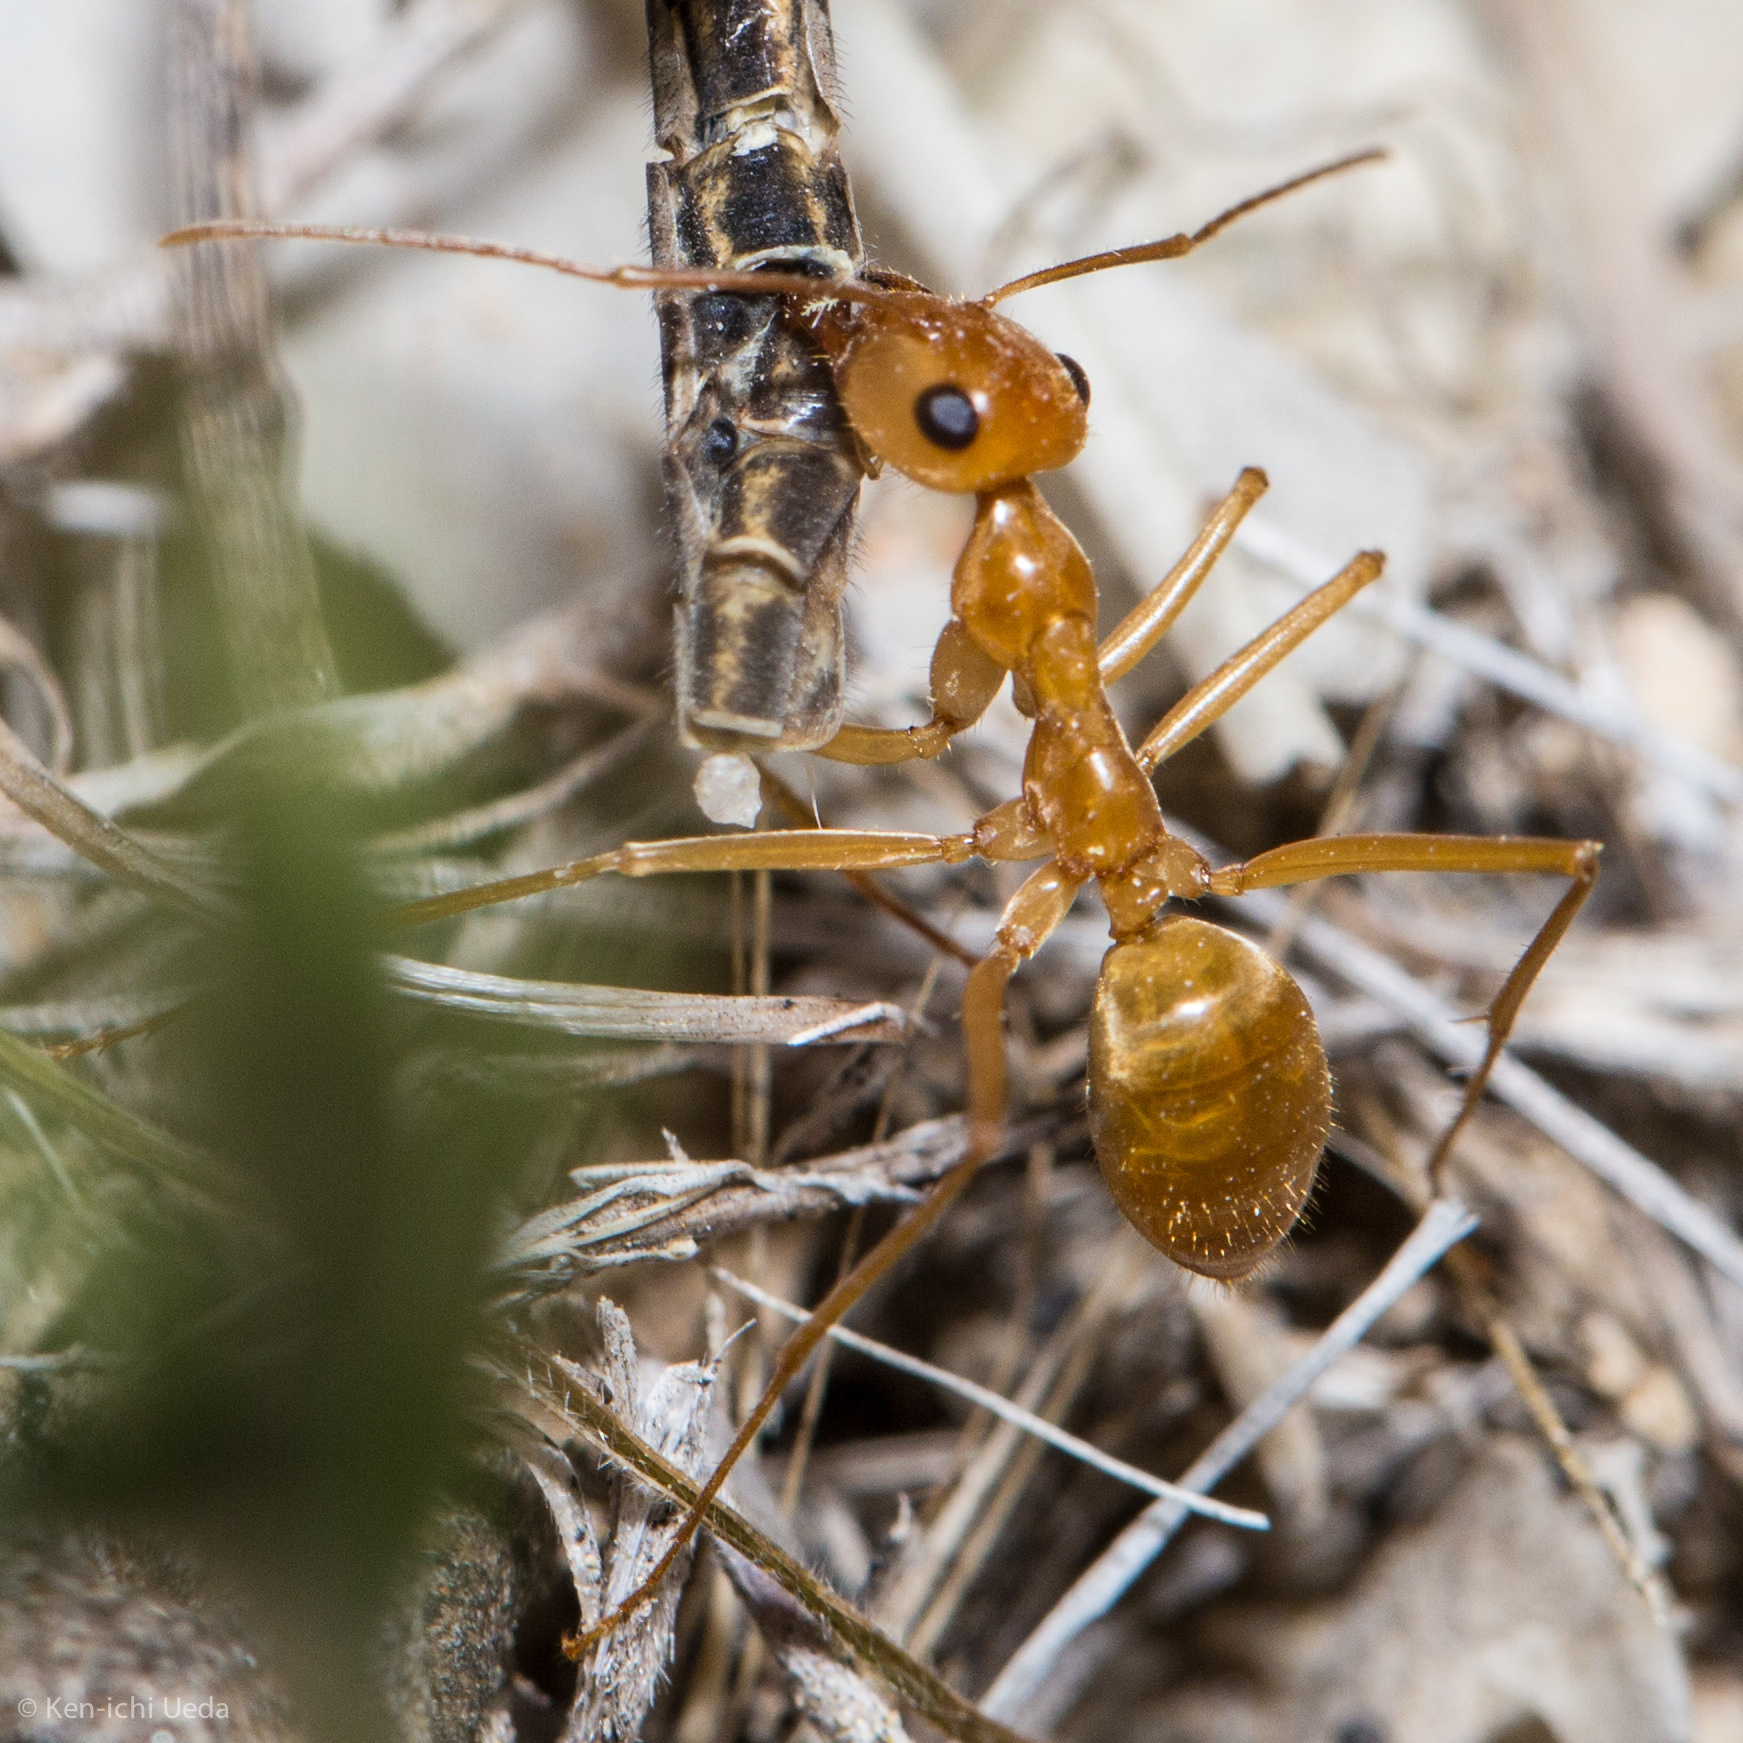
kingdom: Animalia
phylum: Arthropoda
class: Insecta
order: Hymenoptera
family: Formicidae
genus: Myrmecocystus
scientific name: Myrmecocystus mexicanus
